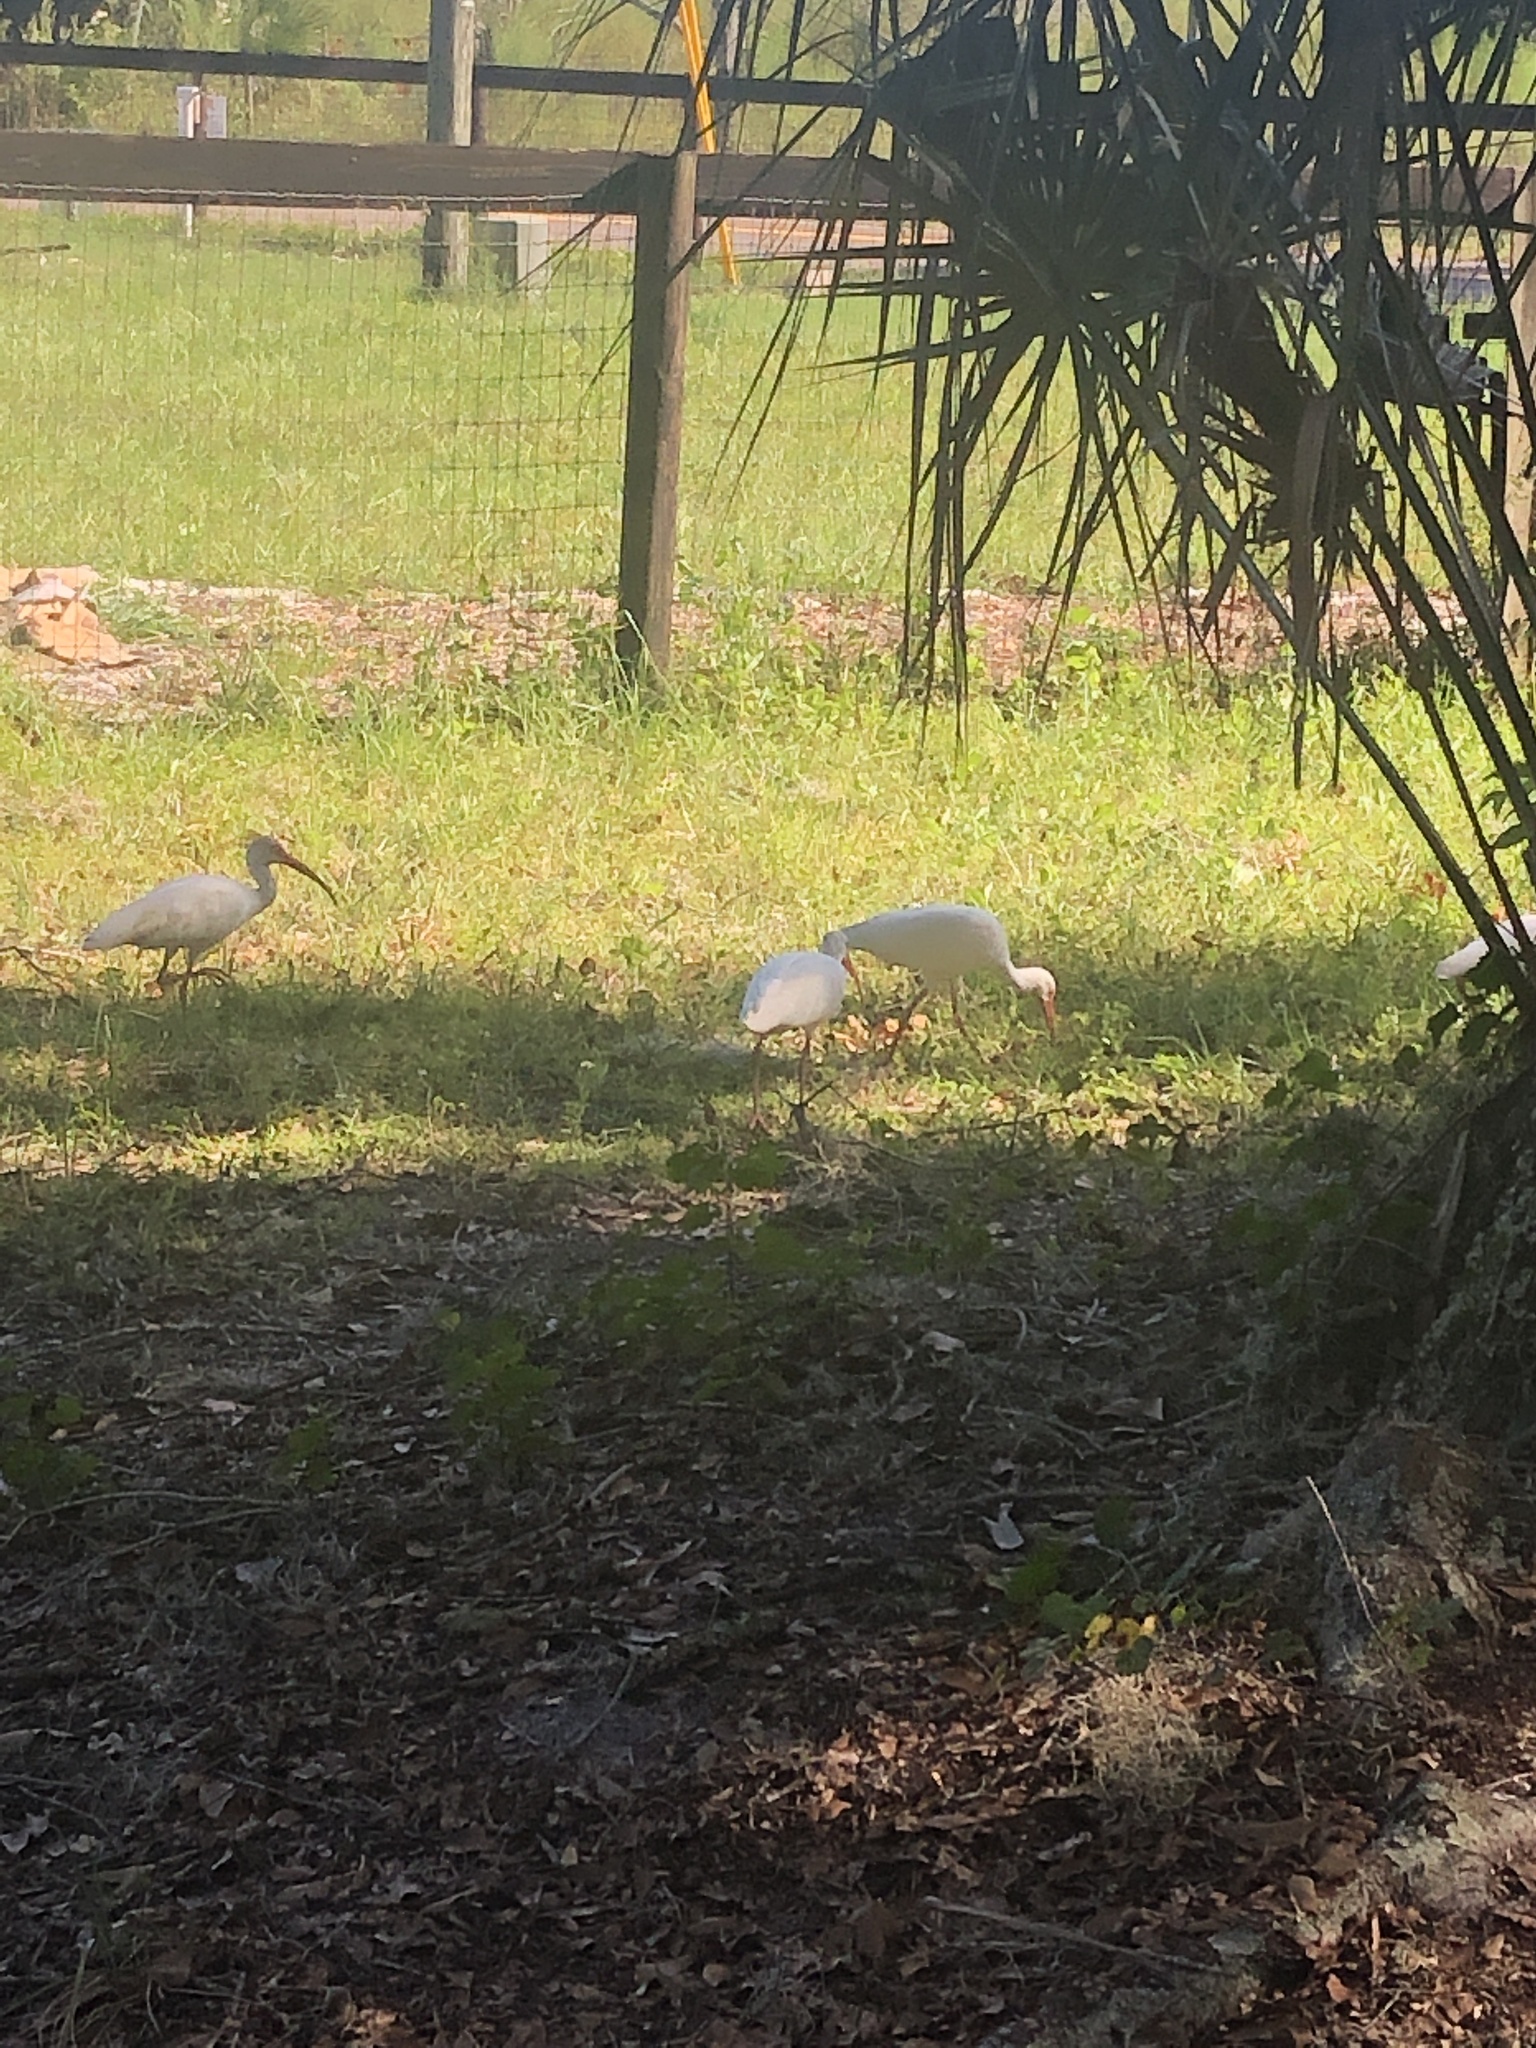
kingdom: Animalia
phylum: Chordata
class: Aves
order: Pelecaniformes
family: Threskiornithidae
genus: Eudocimus
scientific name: Eudocimus albus
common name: White ibis
